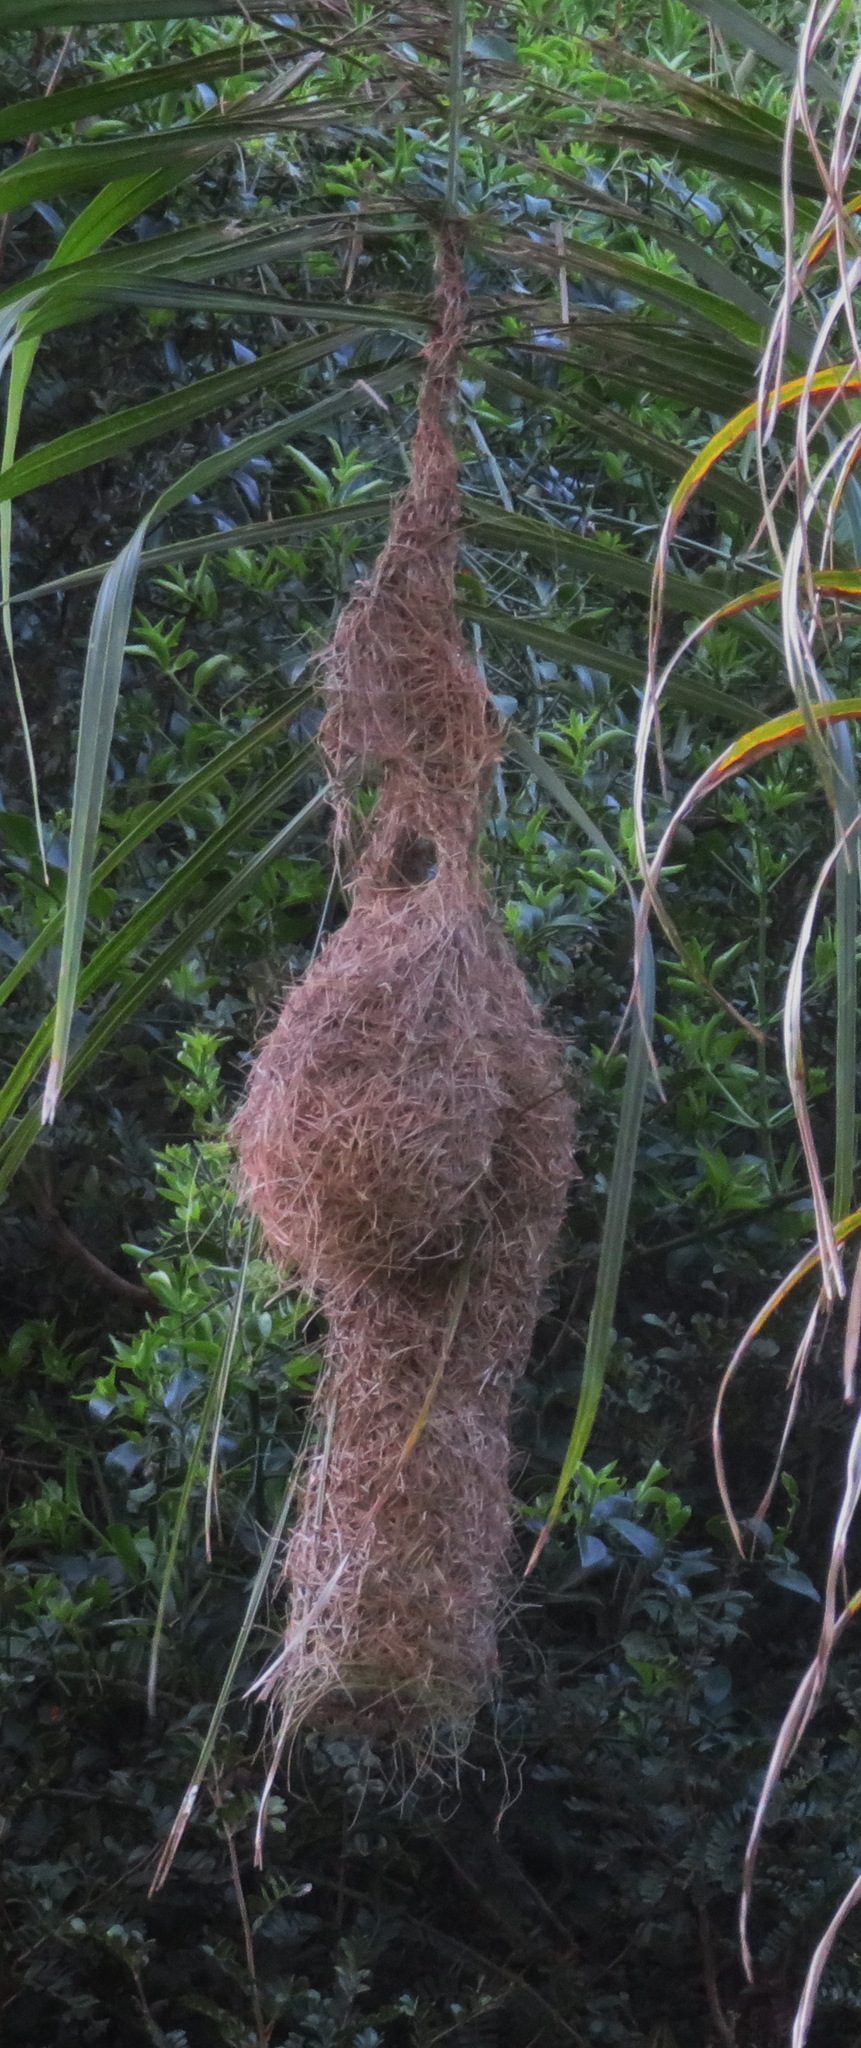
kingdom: Animalia
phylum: Chordata
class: Aves
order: Passeriformes
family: Ploceidae
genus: Ploceus
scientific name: Ploceus ocularis
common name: Spectacled weaver
